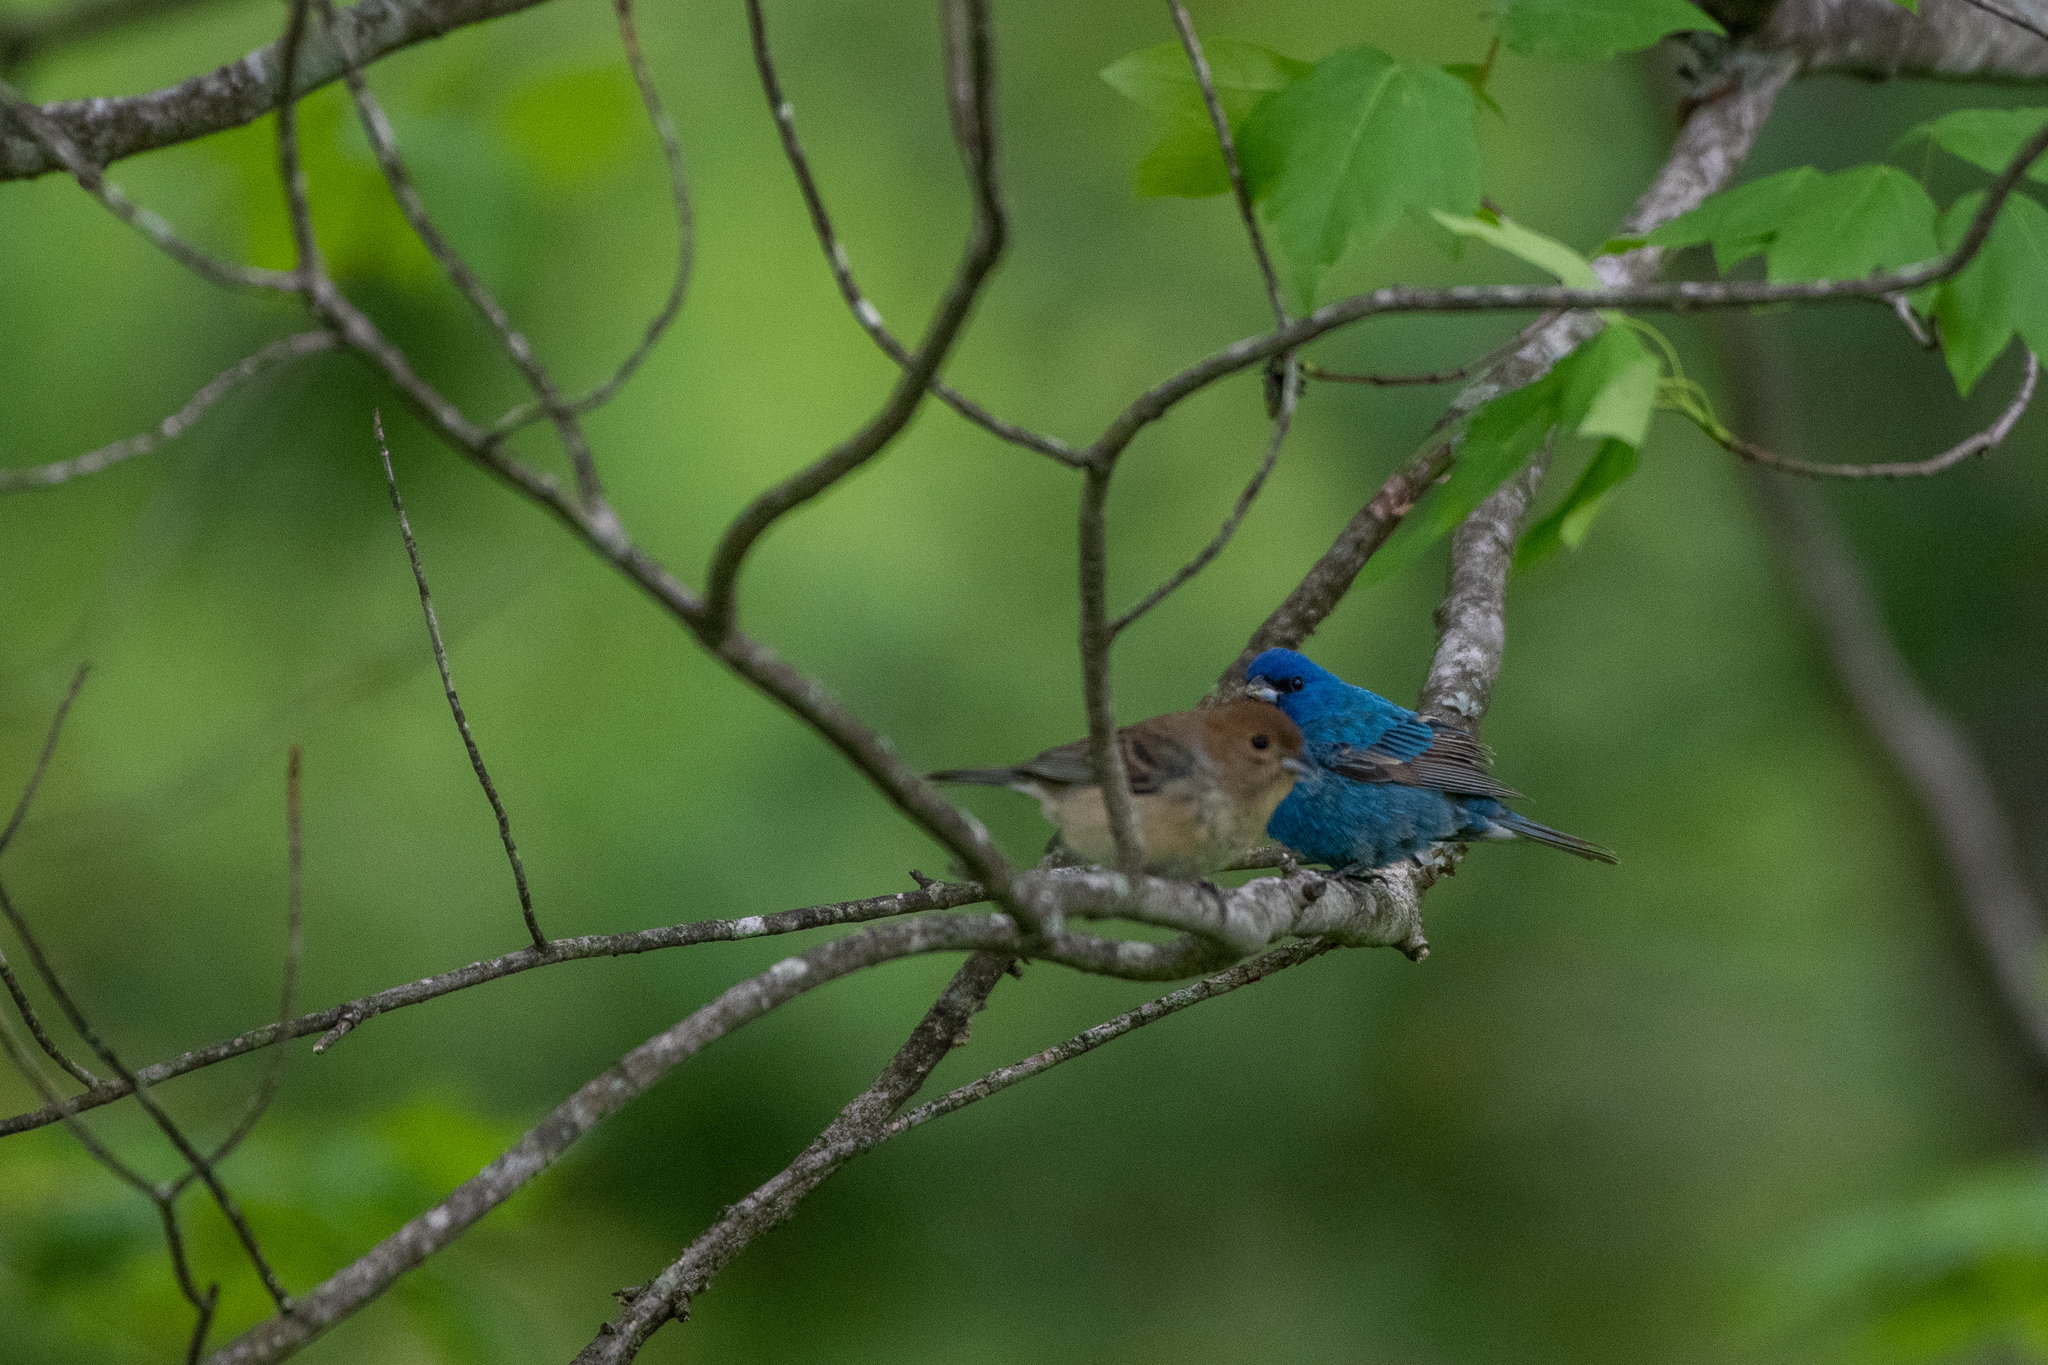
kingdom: Animalia
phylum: Chordata
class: Aves
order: Passeriformes
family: Cardinalidae
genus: Passerina
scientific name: Passerina cyanea
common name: Indigo bunting
